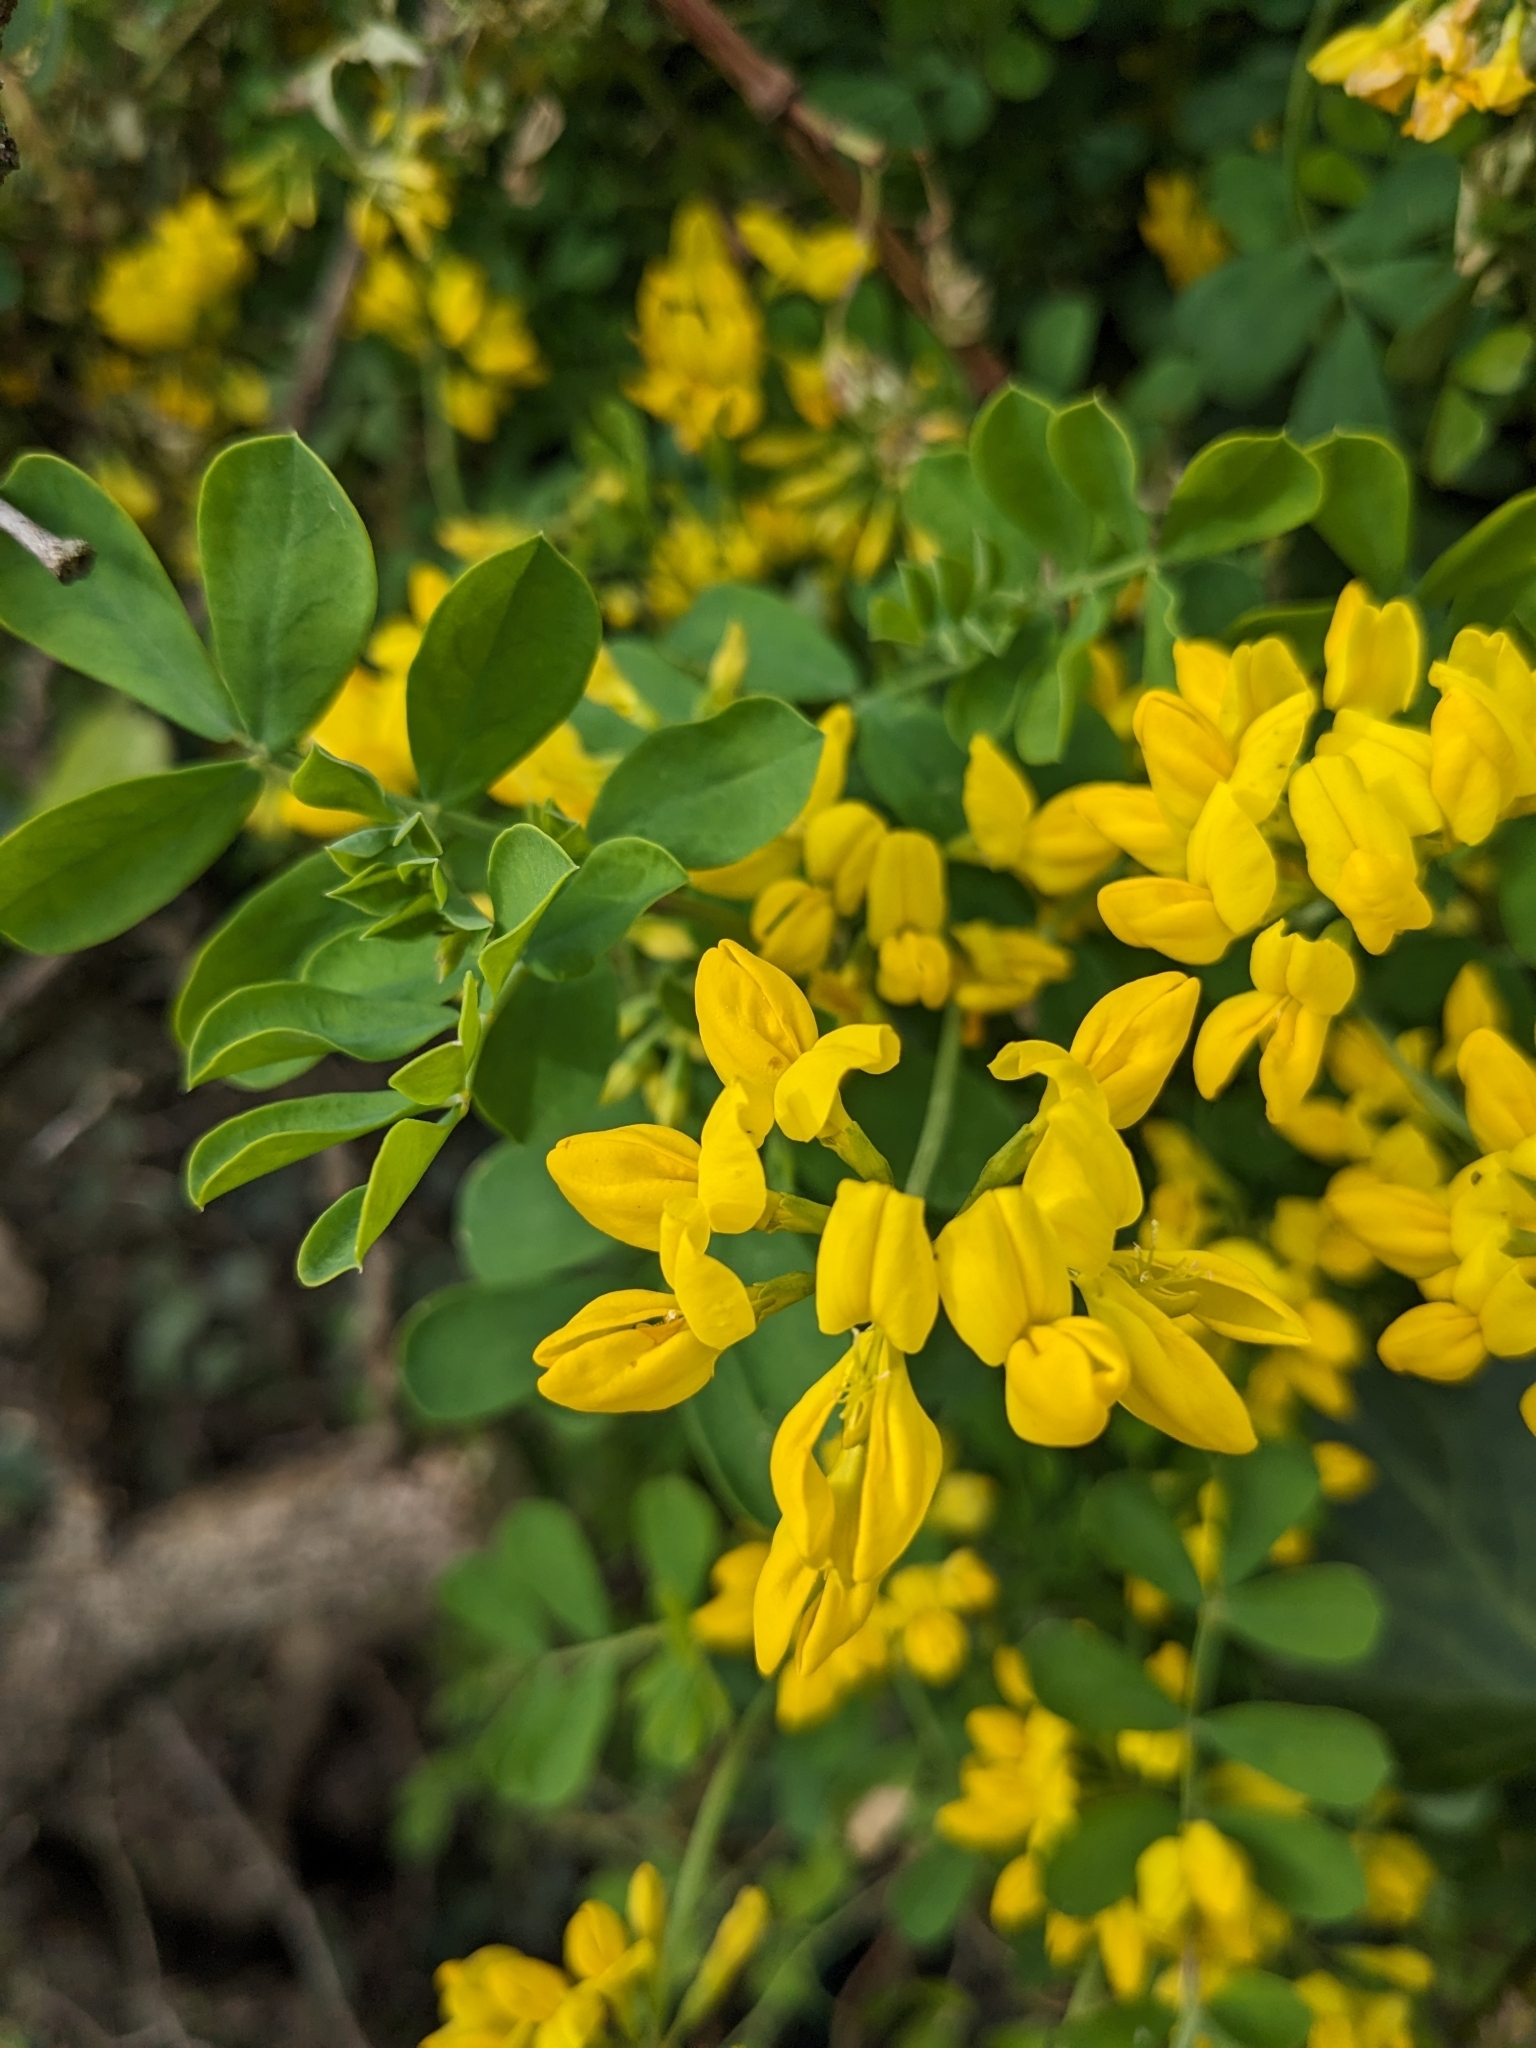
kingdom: Plantae
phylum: Tracheophyta
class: Magnoliopsida
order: Fabales
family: Fabaceae
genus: Coronilla
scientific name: Coronilla valentina
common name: Shrubby scorpion-vetch
